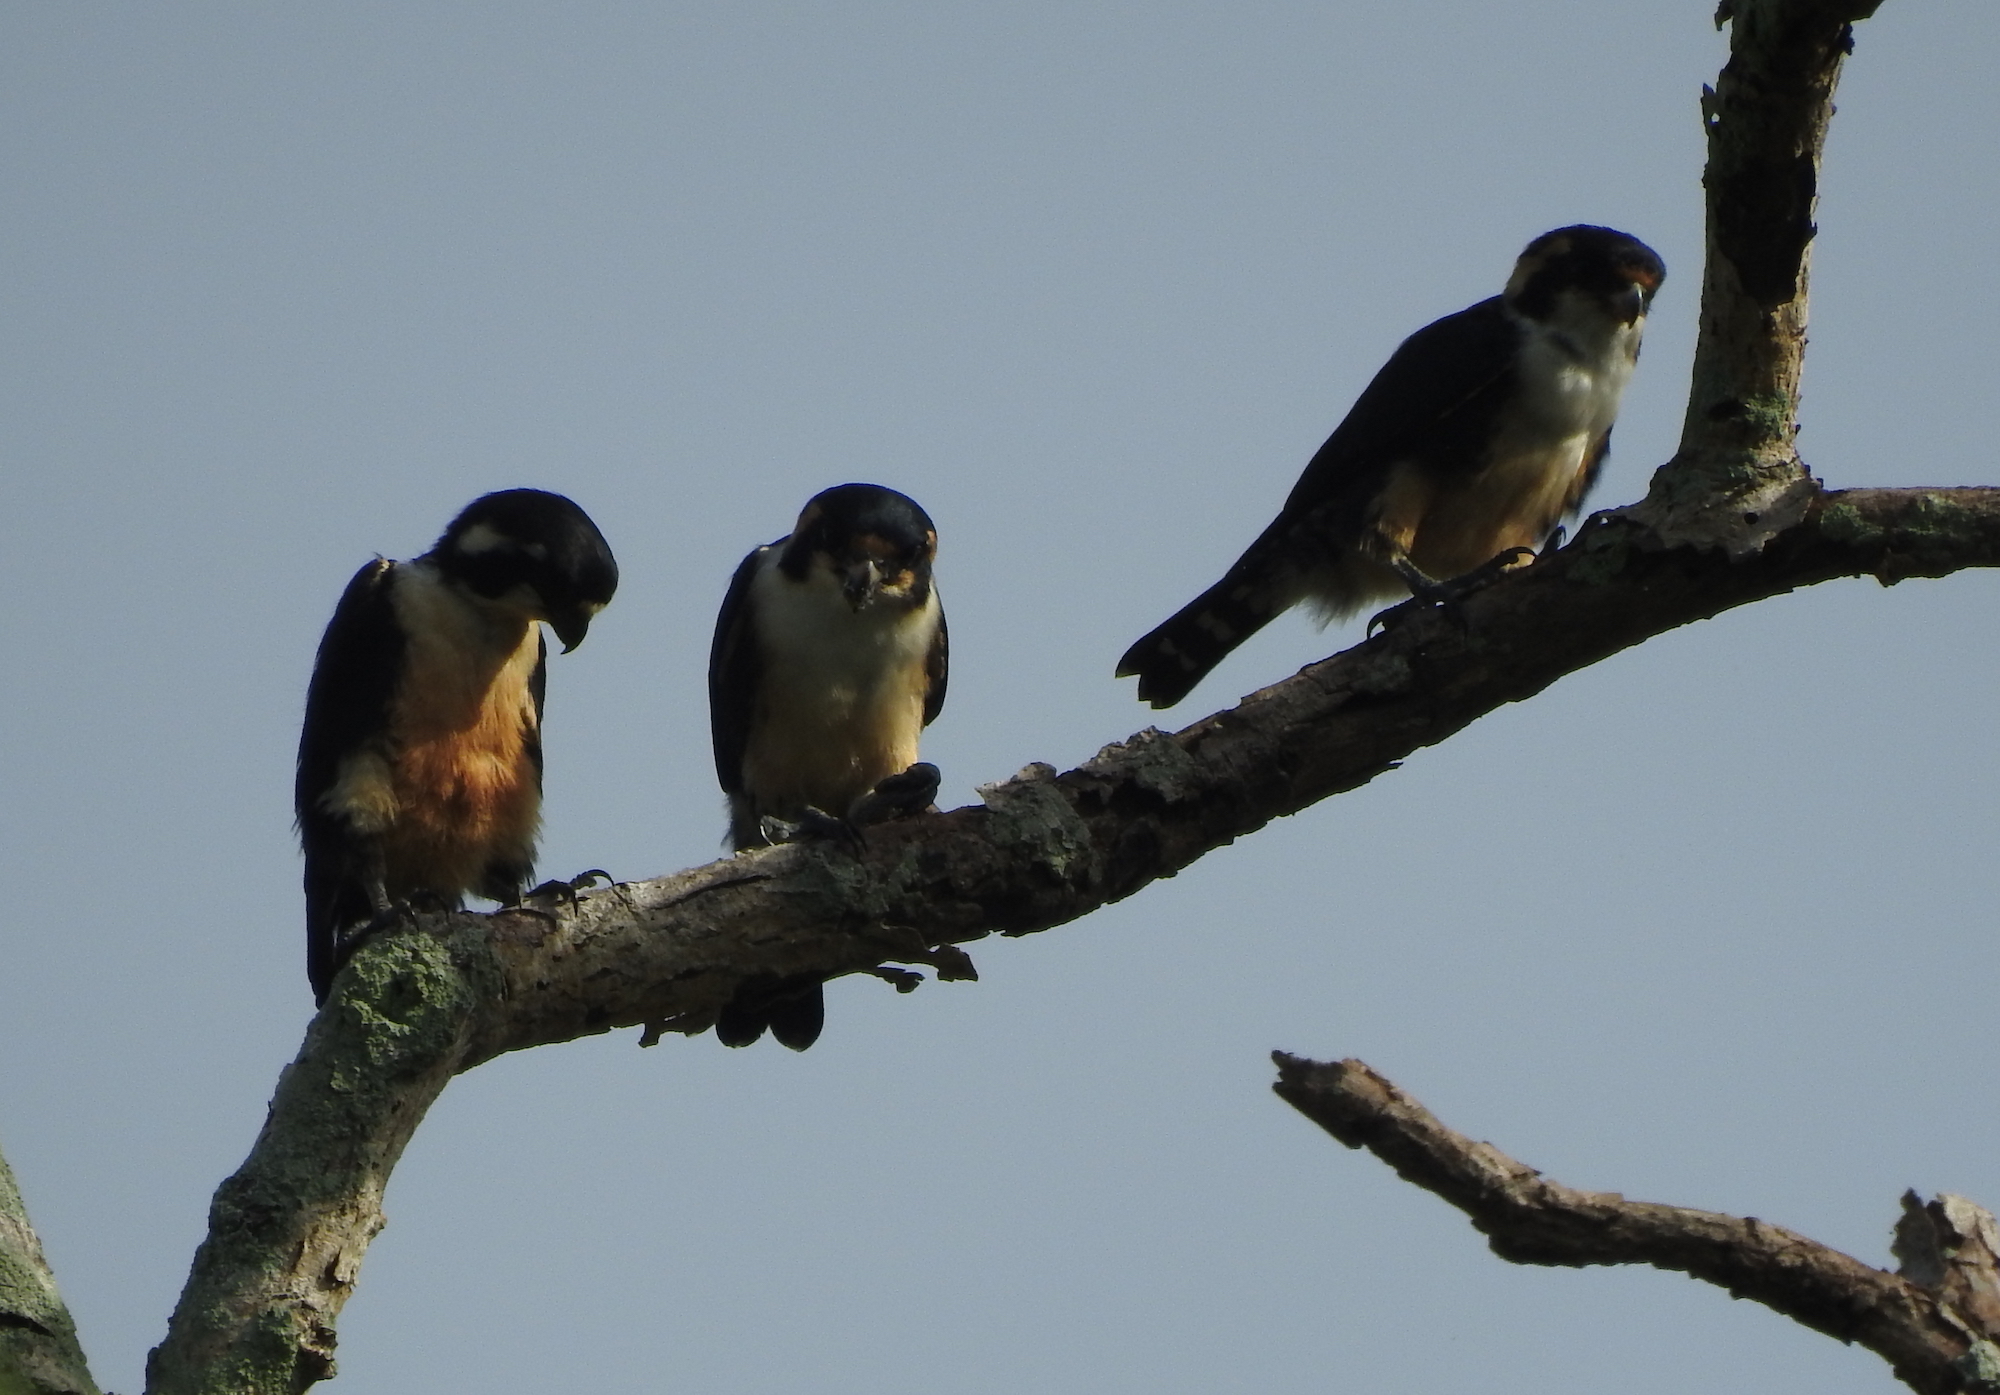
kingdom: Animalia
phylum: Chordata
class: Aves
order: Falconiformes
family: Falconidae
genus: Microhierax
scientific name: Microhierax fringillarius
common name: Black-thighed falconet
